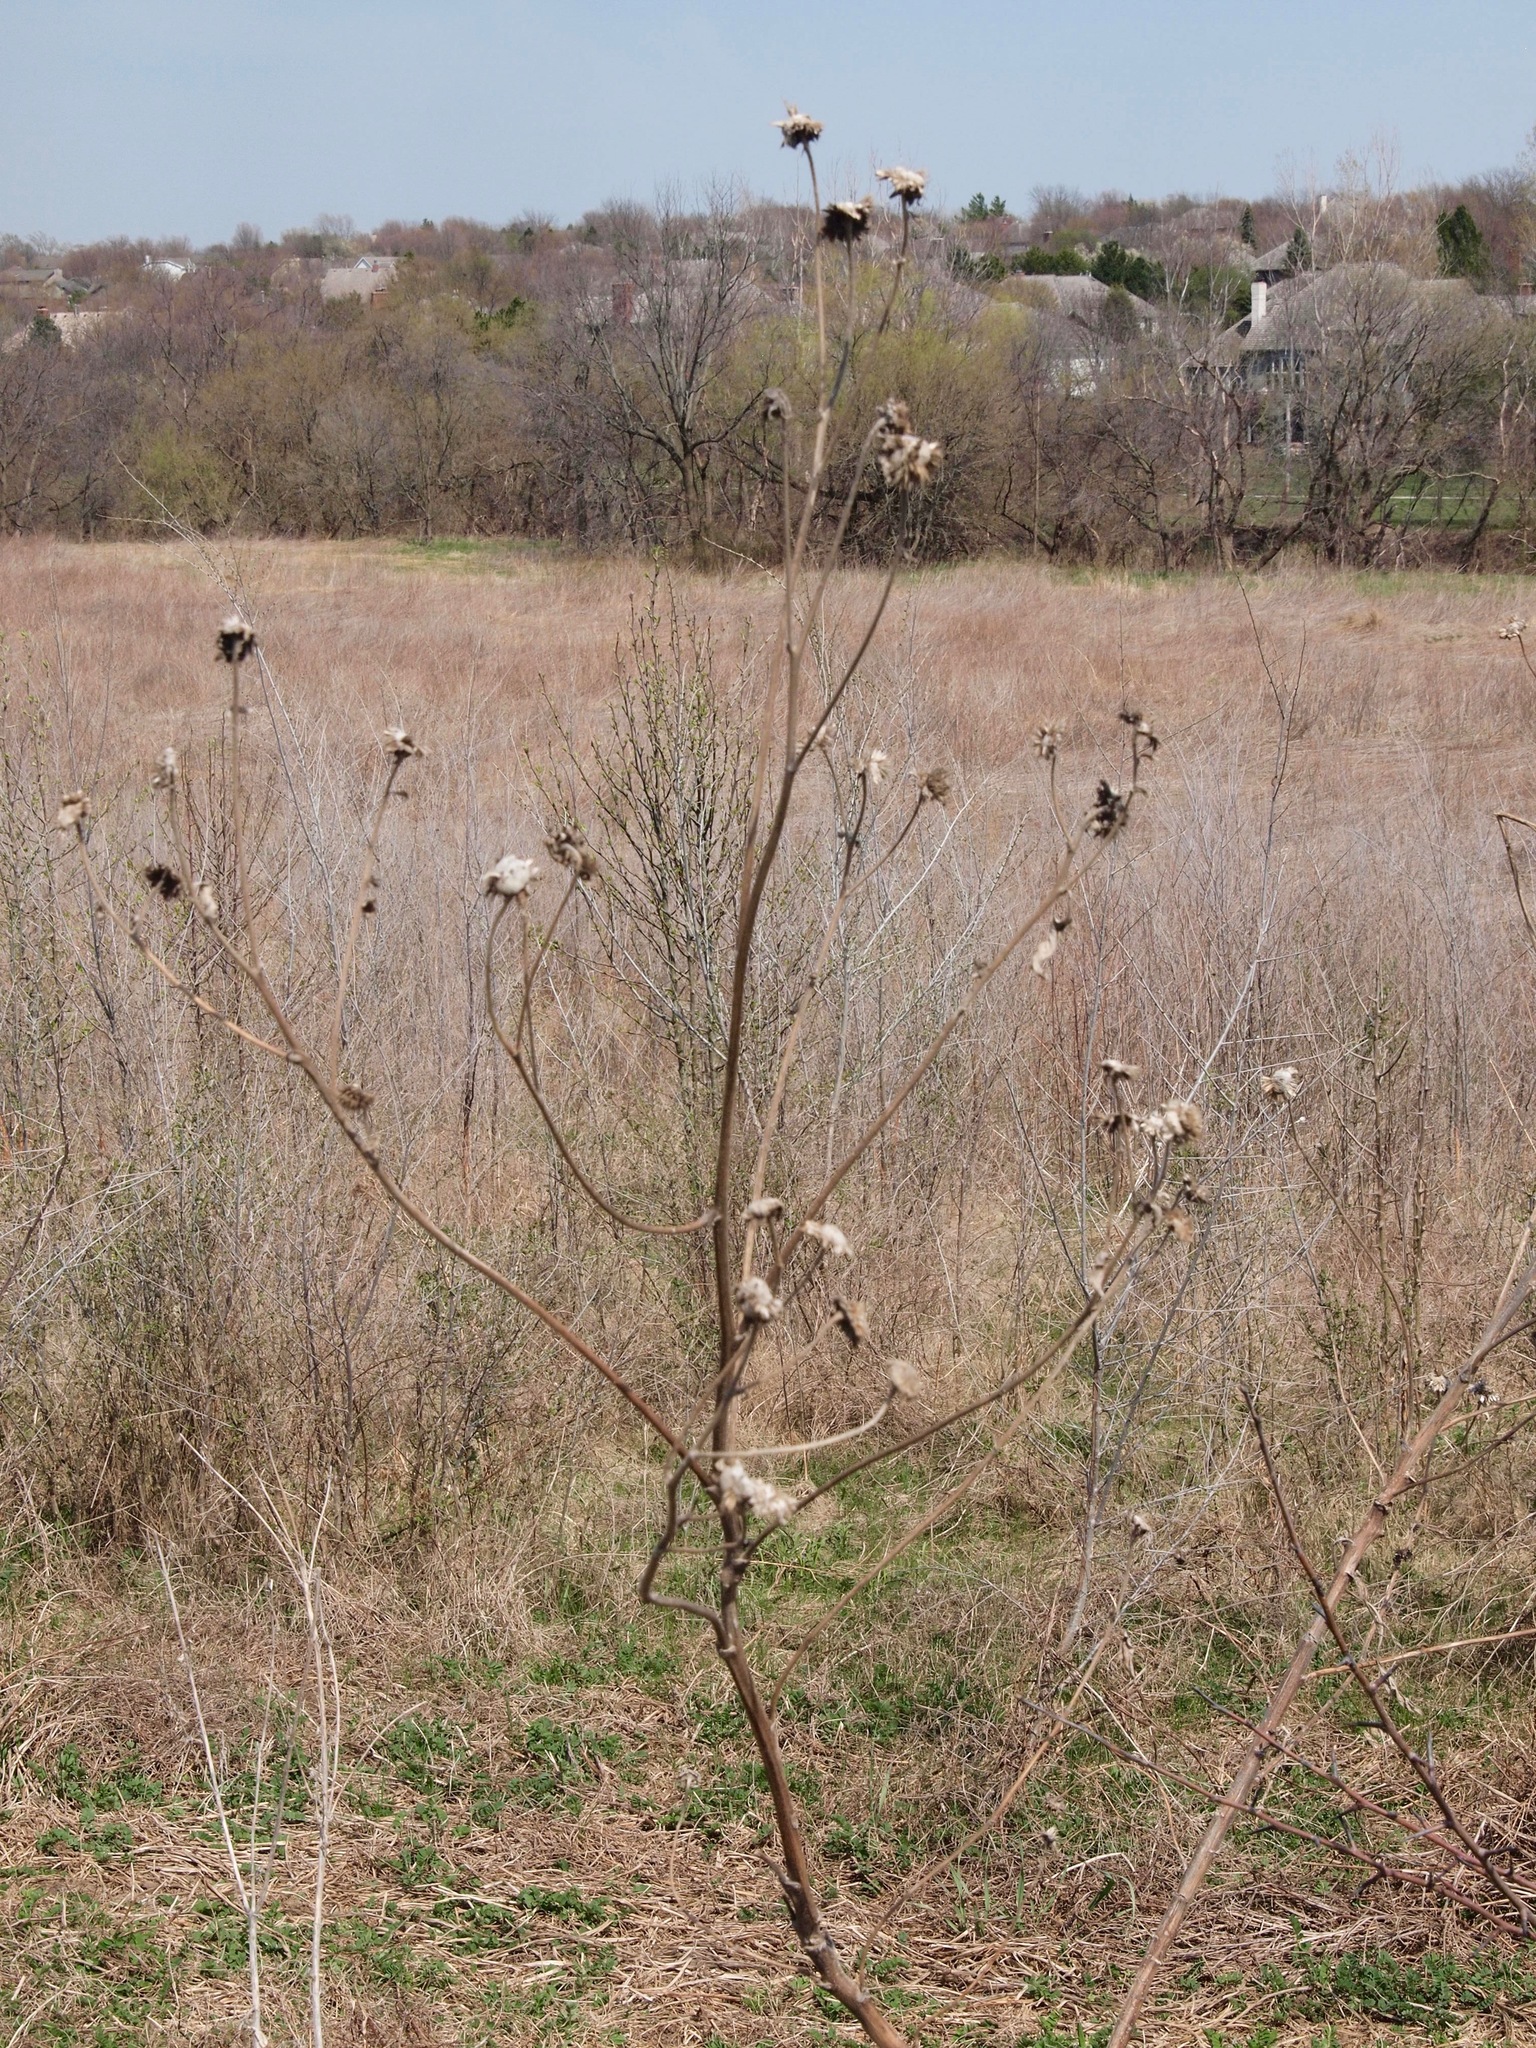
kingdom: Plantae
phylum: Tracheophyta
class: Magnoliopsida
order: Asterales
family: Asteraceae
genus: Silphium
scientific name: Silphium perfoliatum
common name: Cup-plant
